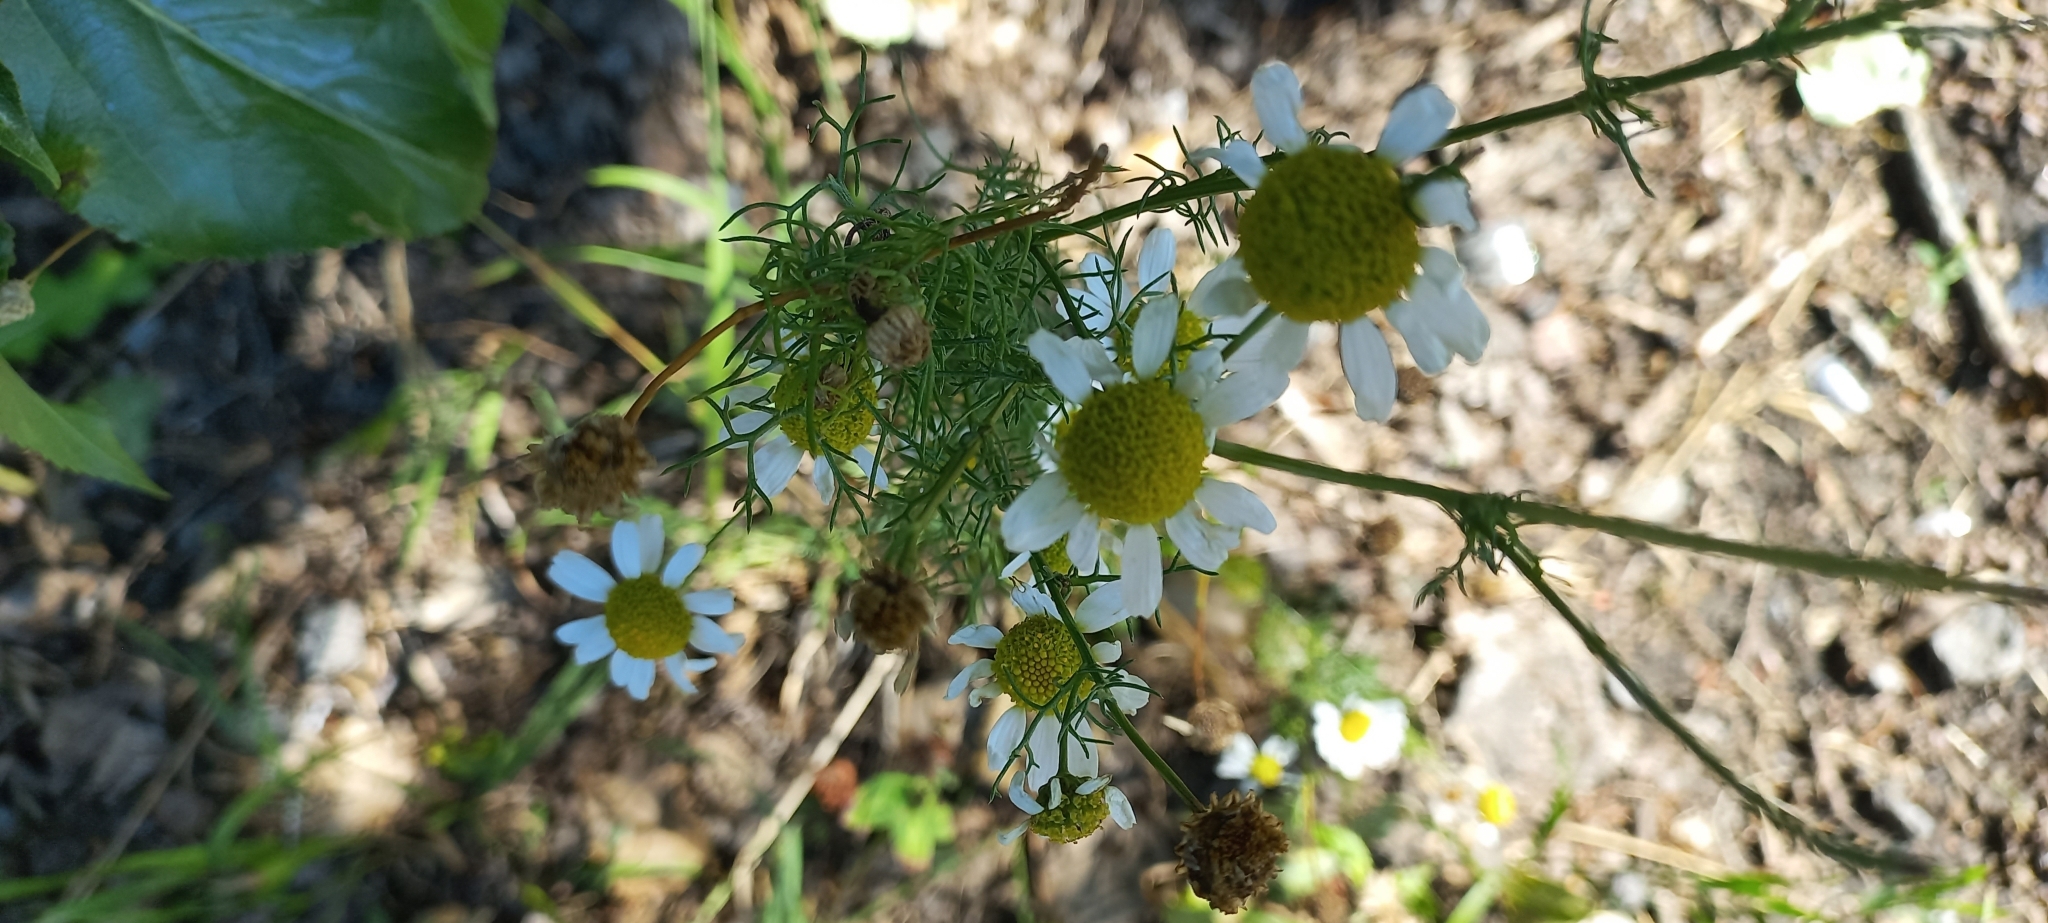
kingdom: Plantae
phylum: Tracheophyta
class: Magnoliopsida
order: Asterales
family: Asteraceae
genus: Tripleurospermum
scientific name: Tripleurospermum inodorum
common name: Scentless mayweed
